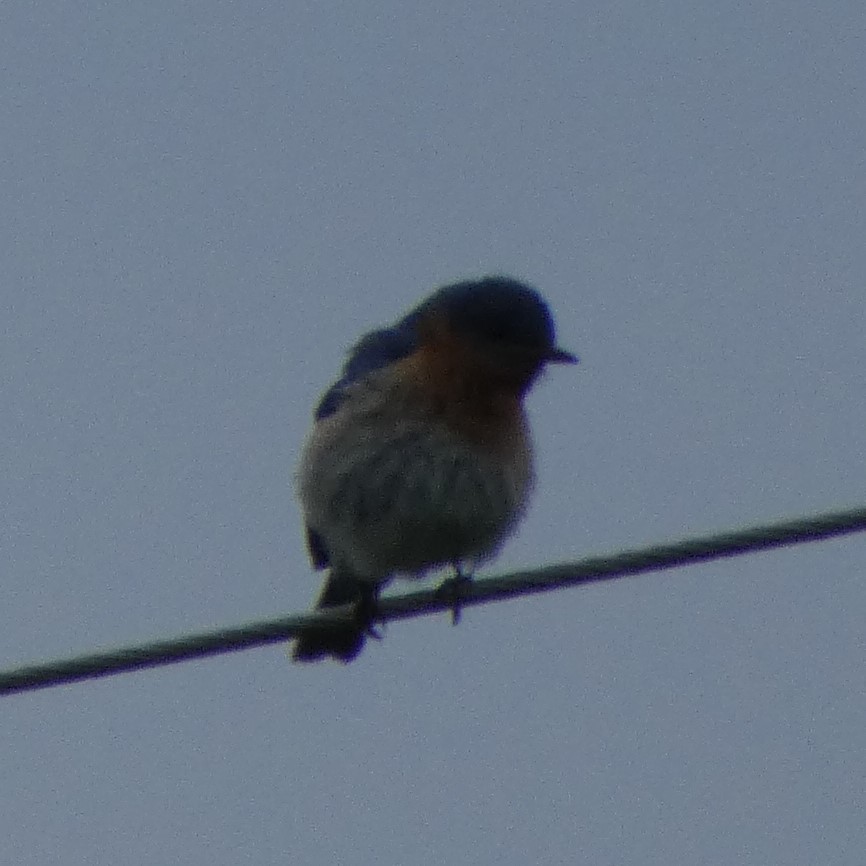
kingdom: Animalia
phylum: Chordata
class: Aves
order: Passeriformes
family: Turdidae
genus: Sialia
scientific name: Sialia sialis
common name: Eastern bluebird
